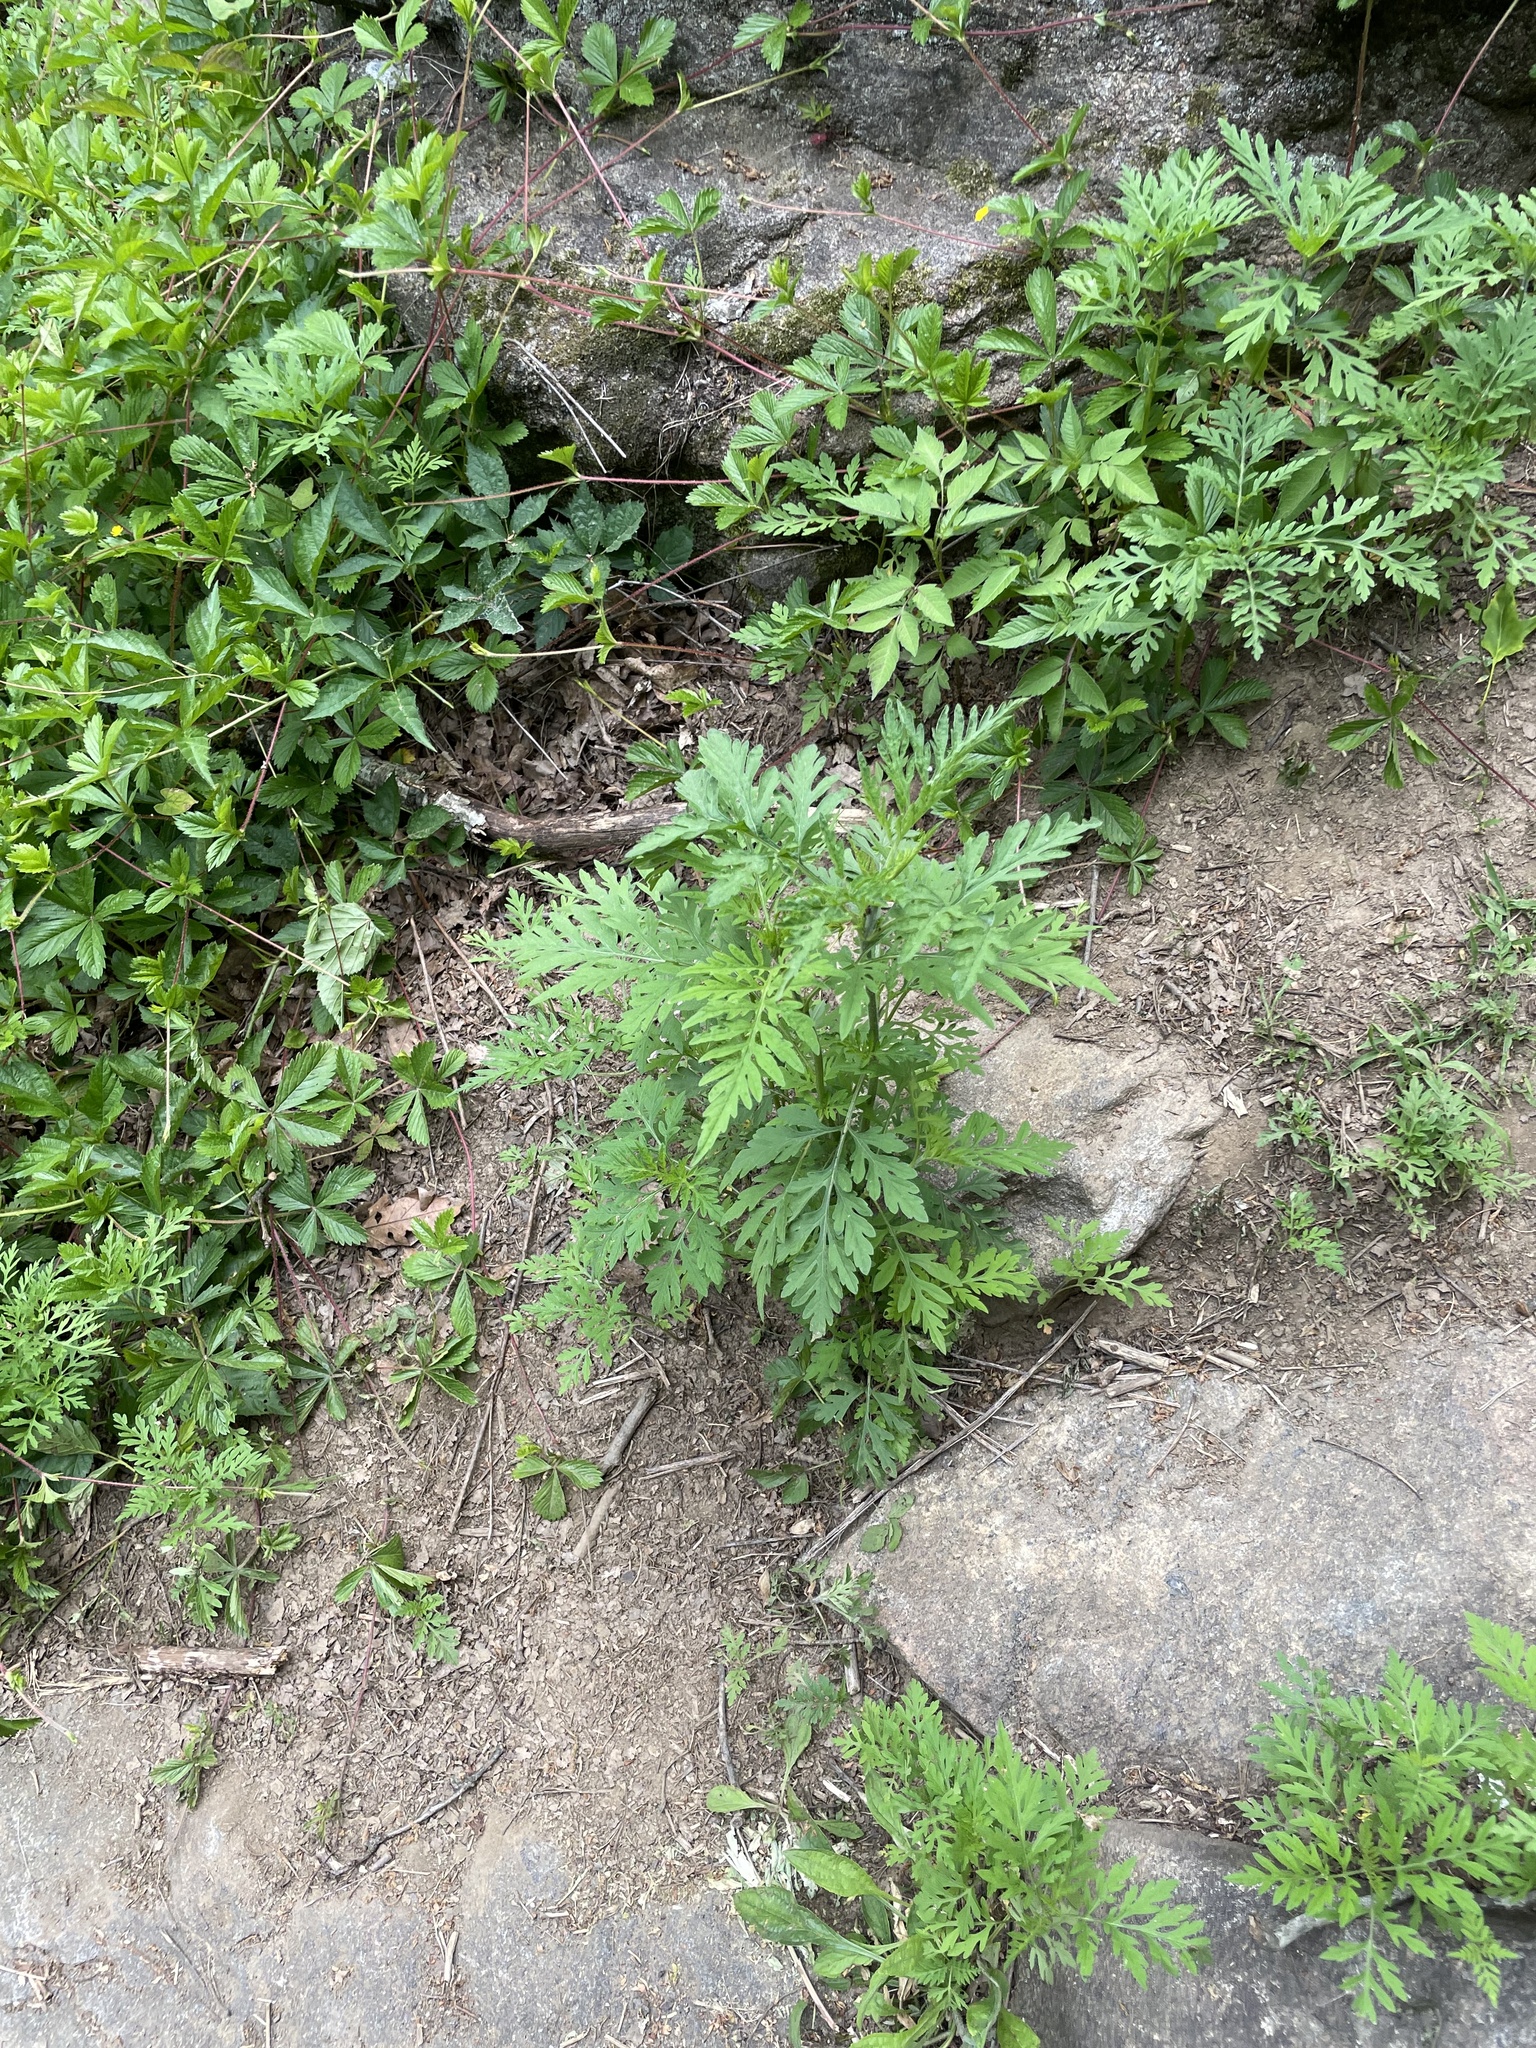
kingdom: Plantae
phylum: Tracheophyta
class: Magnoliopsida
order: Asterales
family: Asteraceae
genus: Ambrosia
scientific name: Ambrosia artemisiifolia
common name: Annual ragweed
